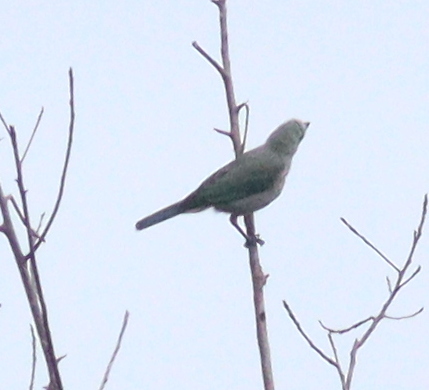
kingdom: Animalia
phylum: Chordata
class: Aves
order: Passeriformes
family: Thraupidae
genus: Thraupis
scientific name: Thraupis episcopus
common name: Blue-grey tanager
